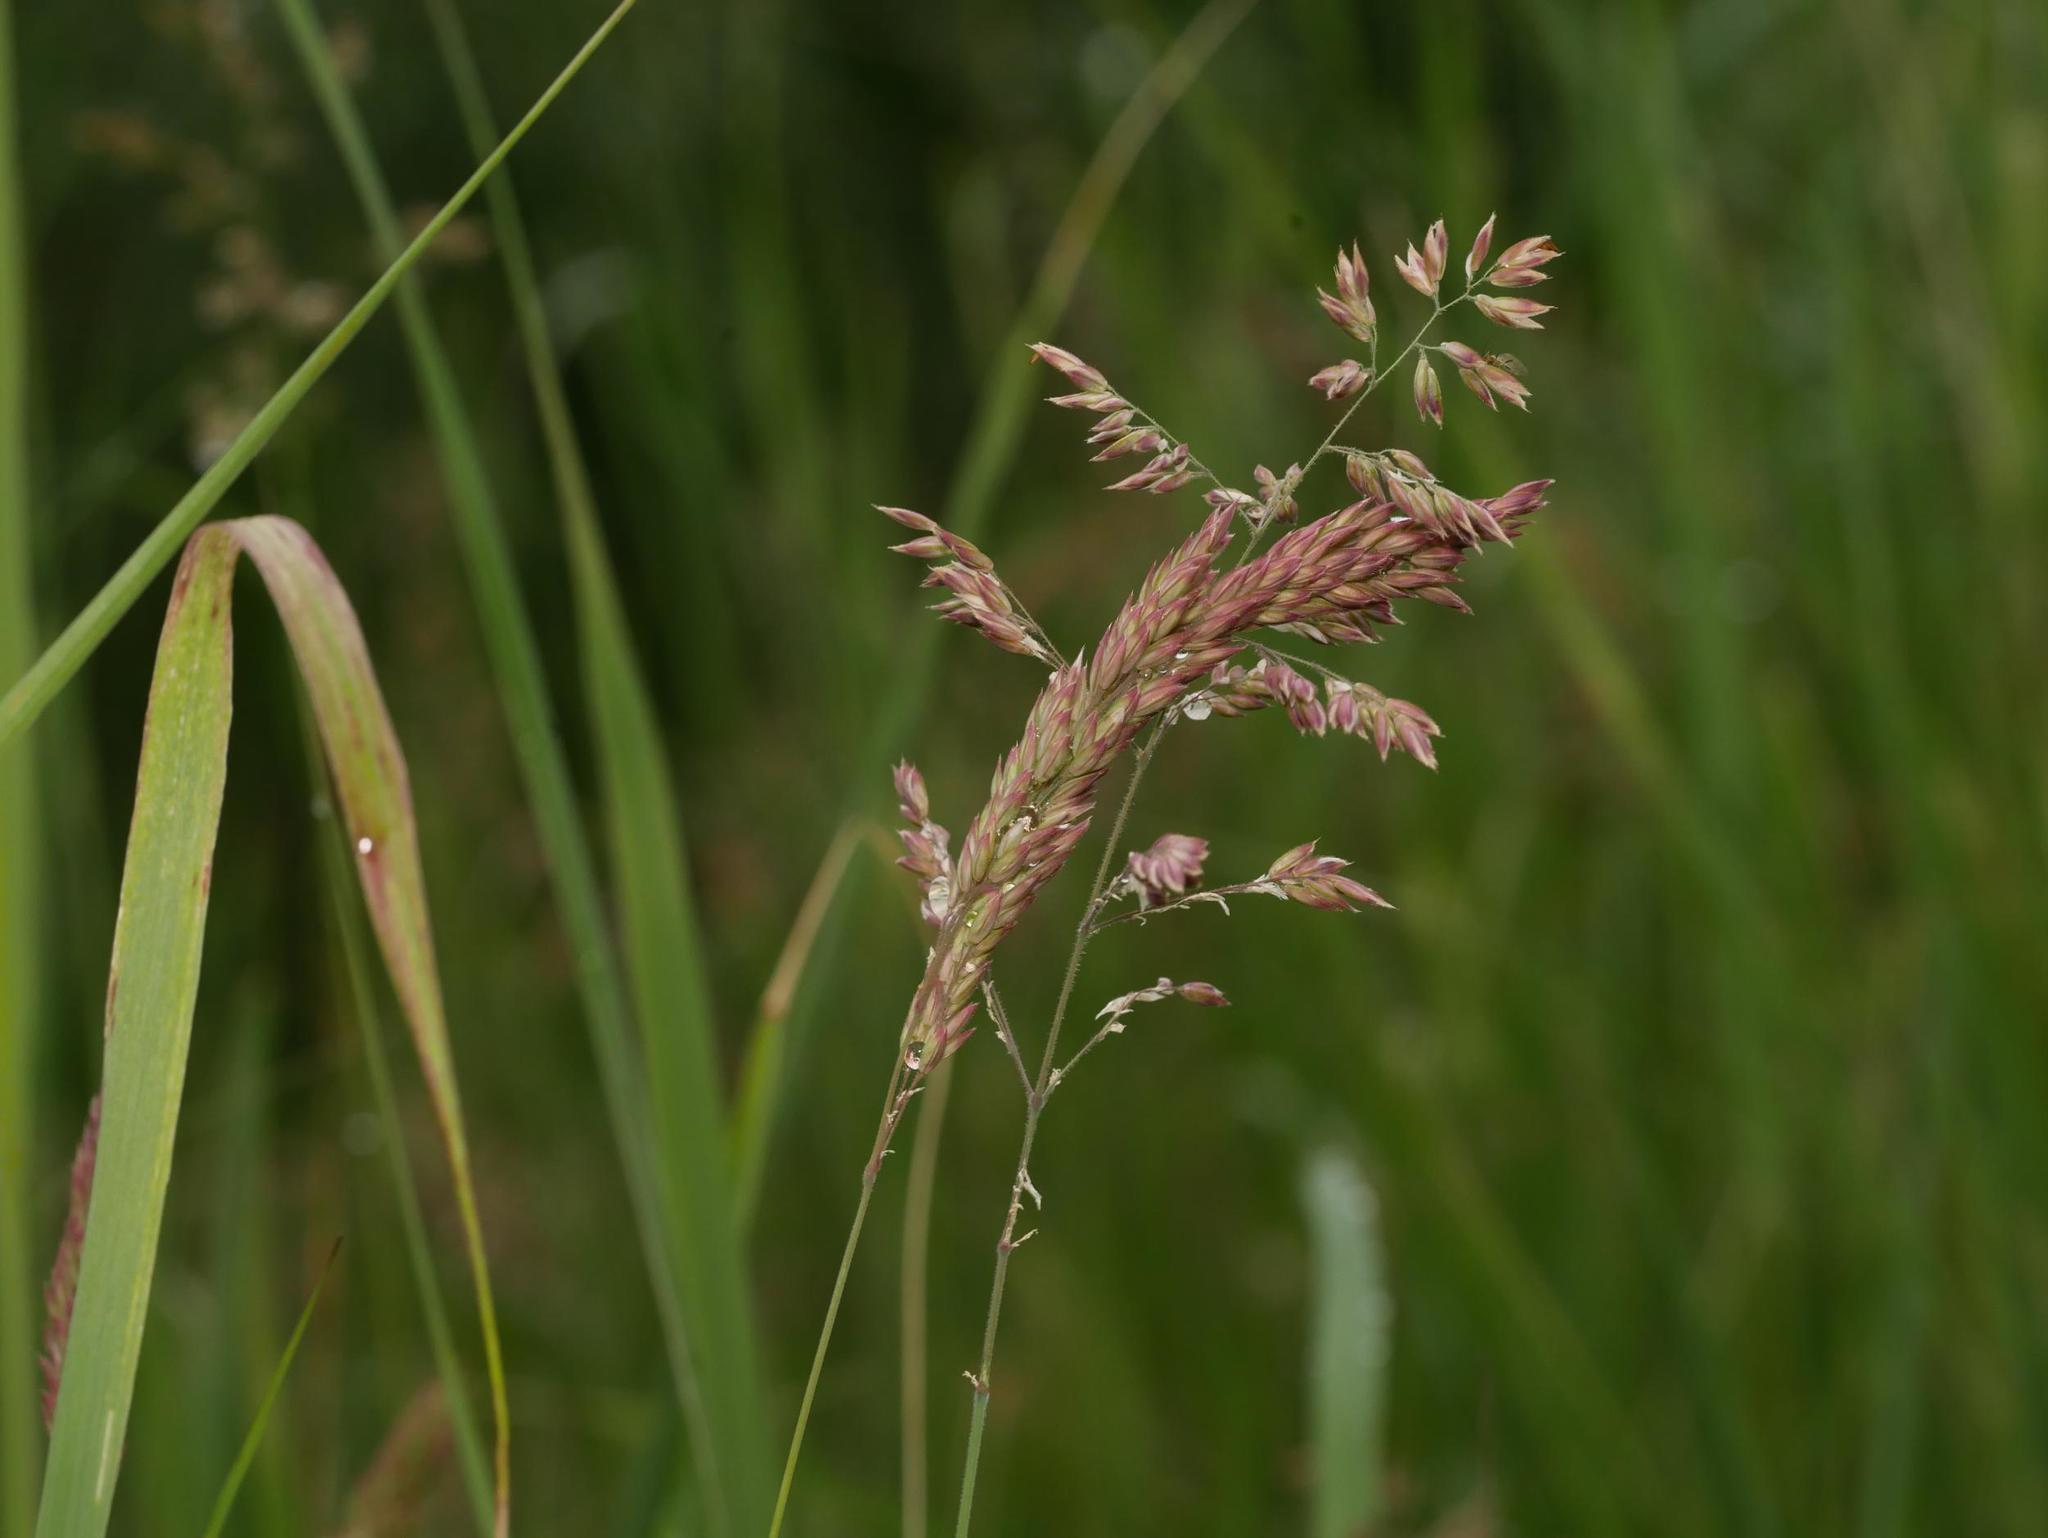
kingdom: Plantae
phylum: Tracheophyta
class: Liliopsida
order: Poales
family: Poaceae
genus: Holcus
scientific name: Holcus lanatus
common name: Yorkshire-fog
